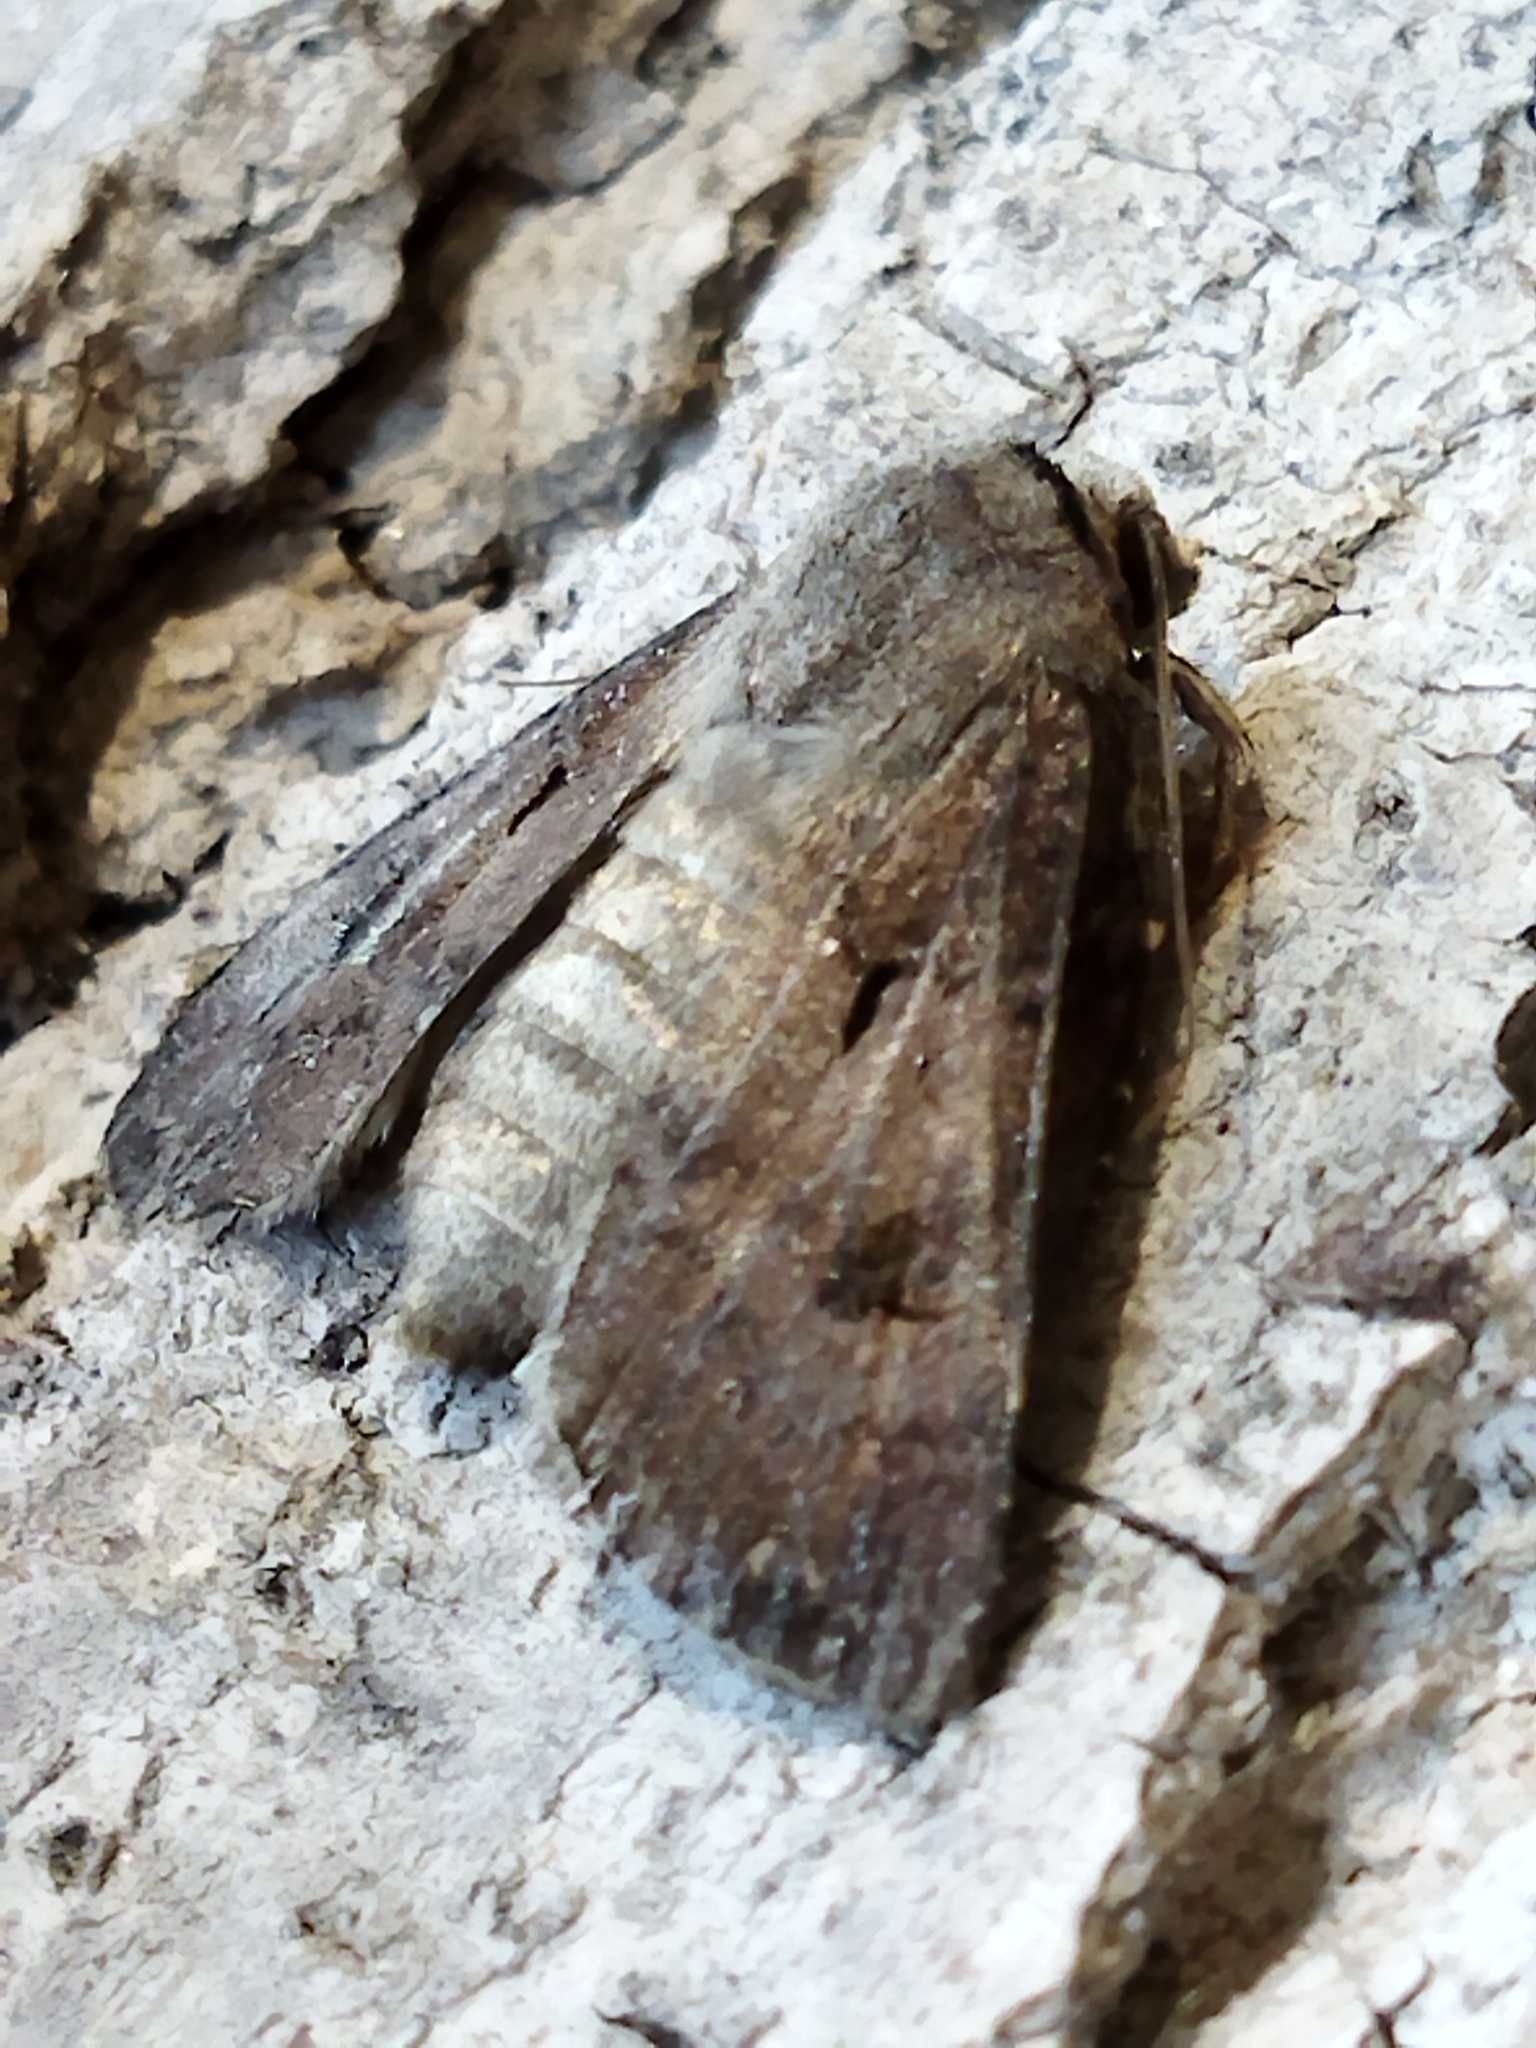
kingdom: Animalia
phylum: Arthropoda
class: Insecta
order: Lepidoptera
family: Noctuidae
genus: Agrotis
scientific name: Agrotis exclamationis
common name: Heart and dart
